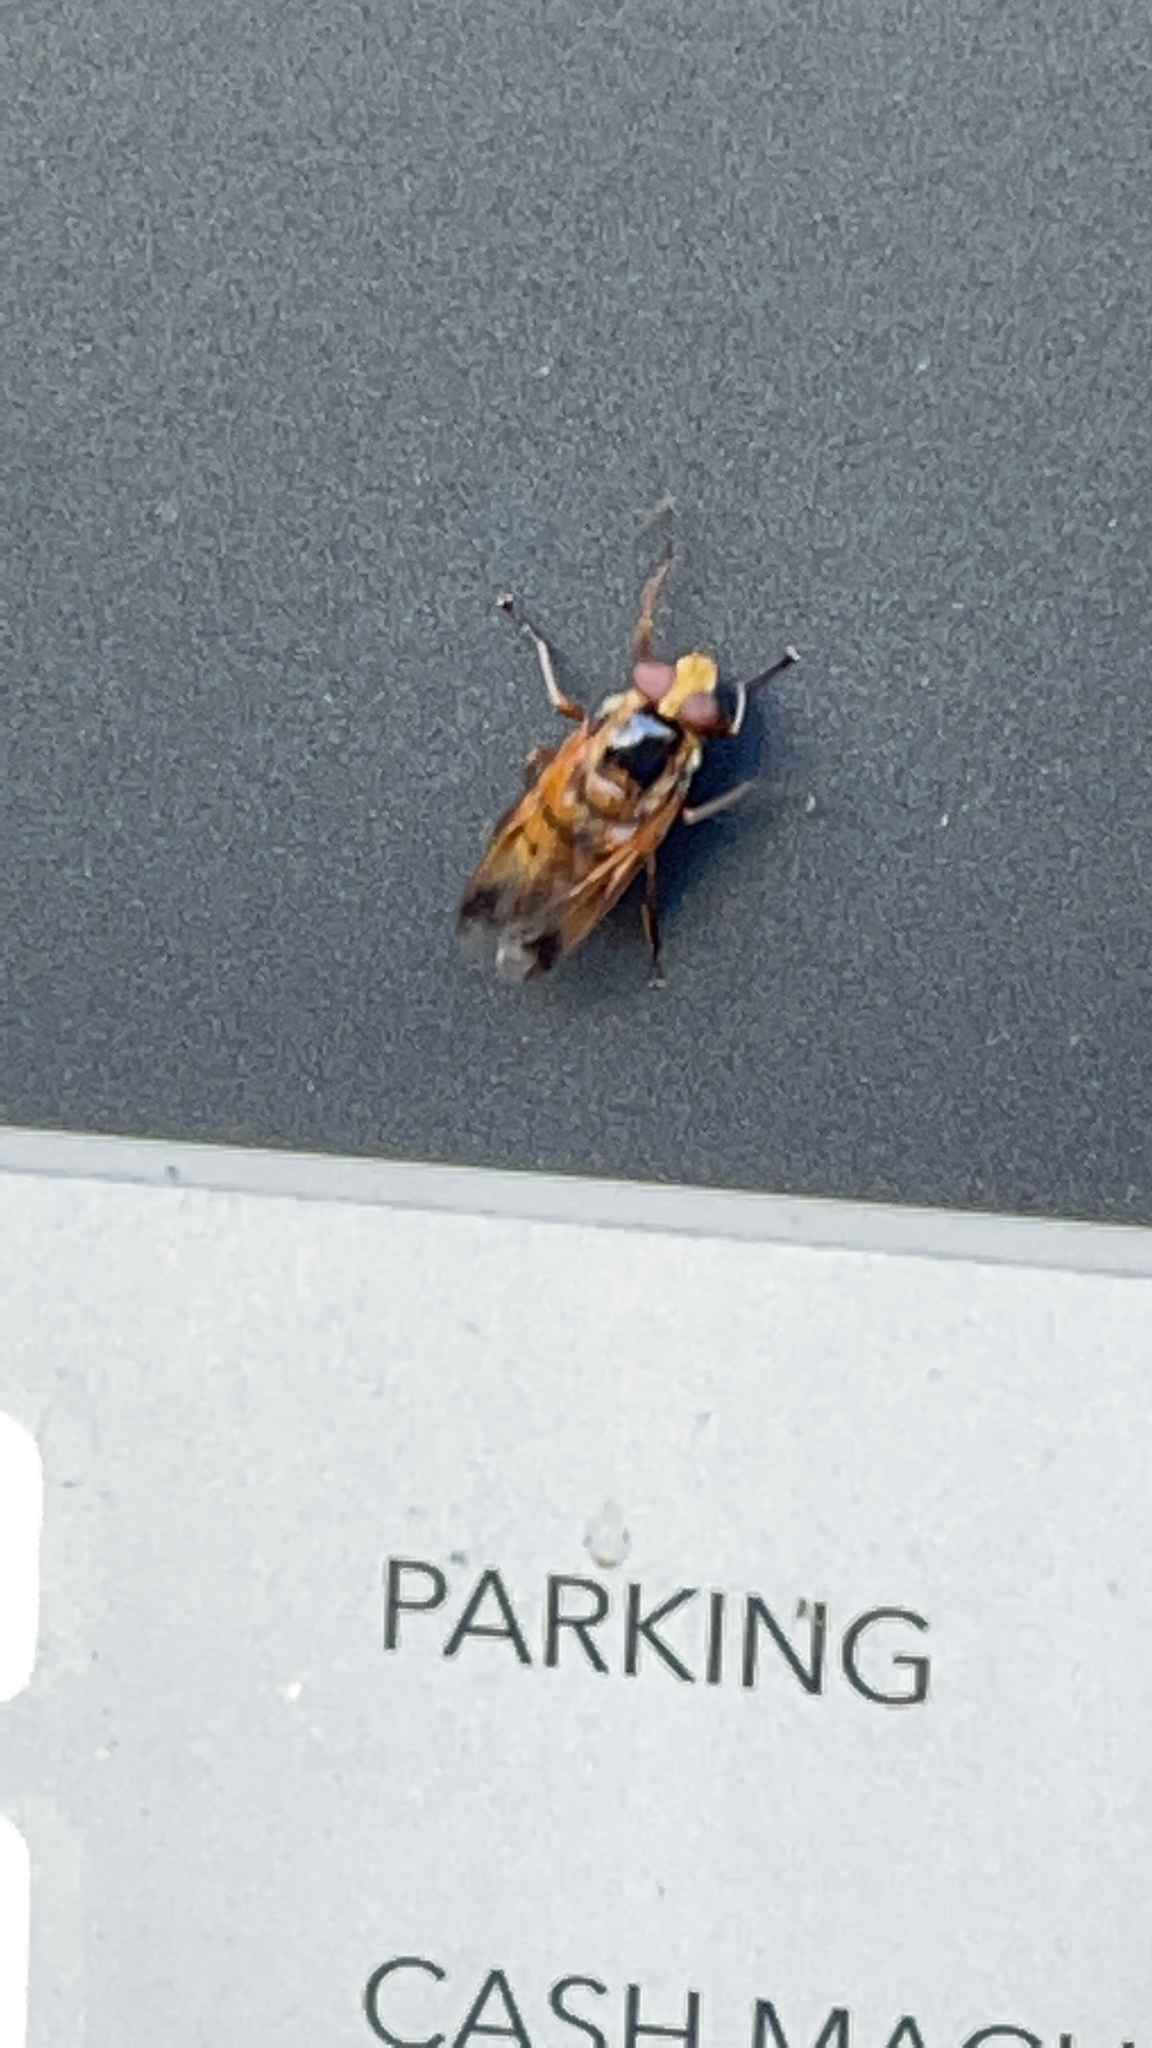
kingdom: Animalia
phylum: Arthropoda
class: Insecta
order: Diptera
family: Syrphidae
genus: Volucella
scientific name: Volucella zonaria
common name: Hornet hoverfly
